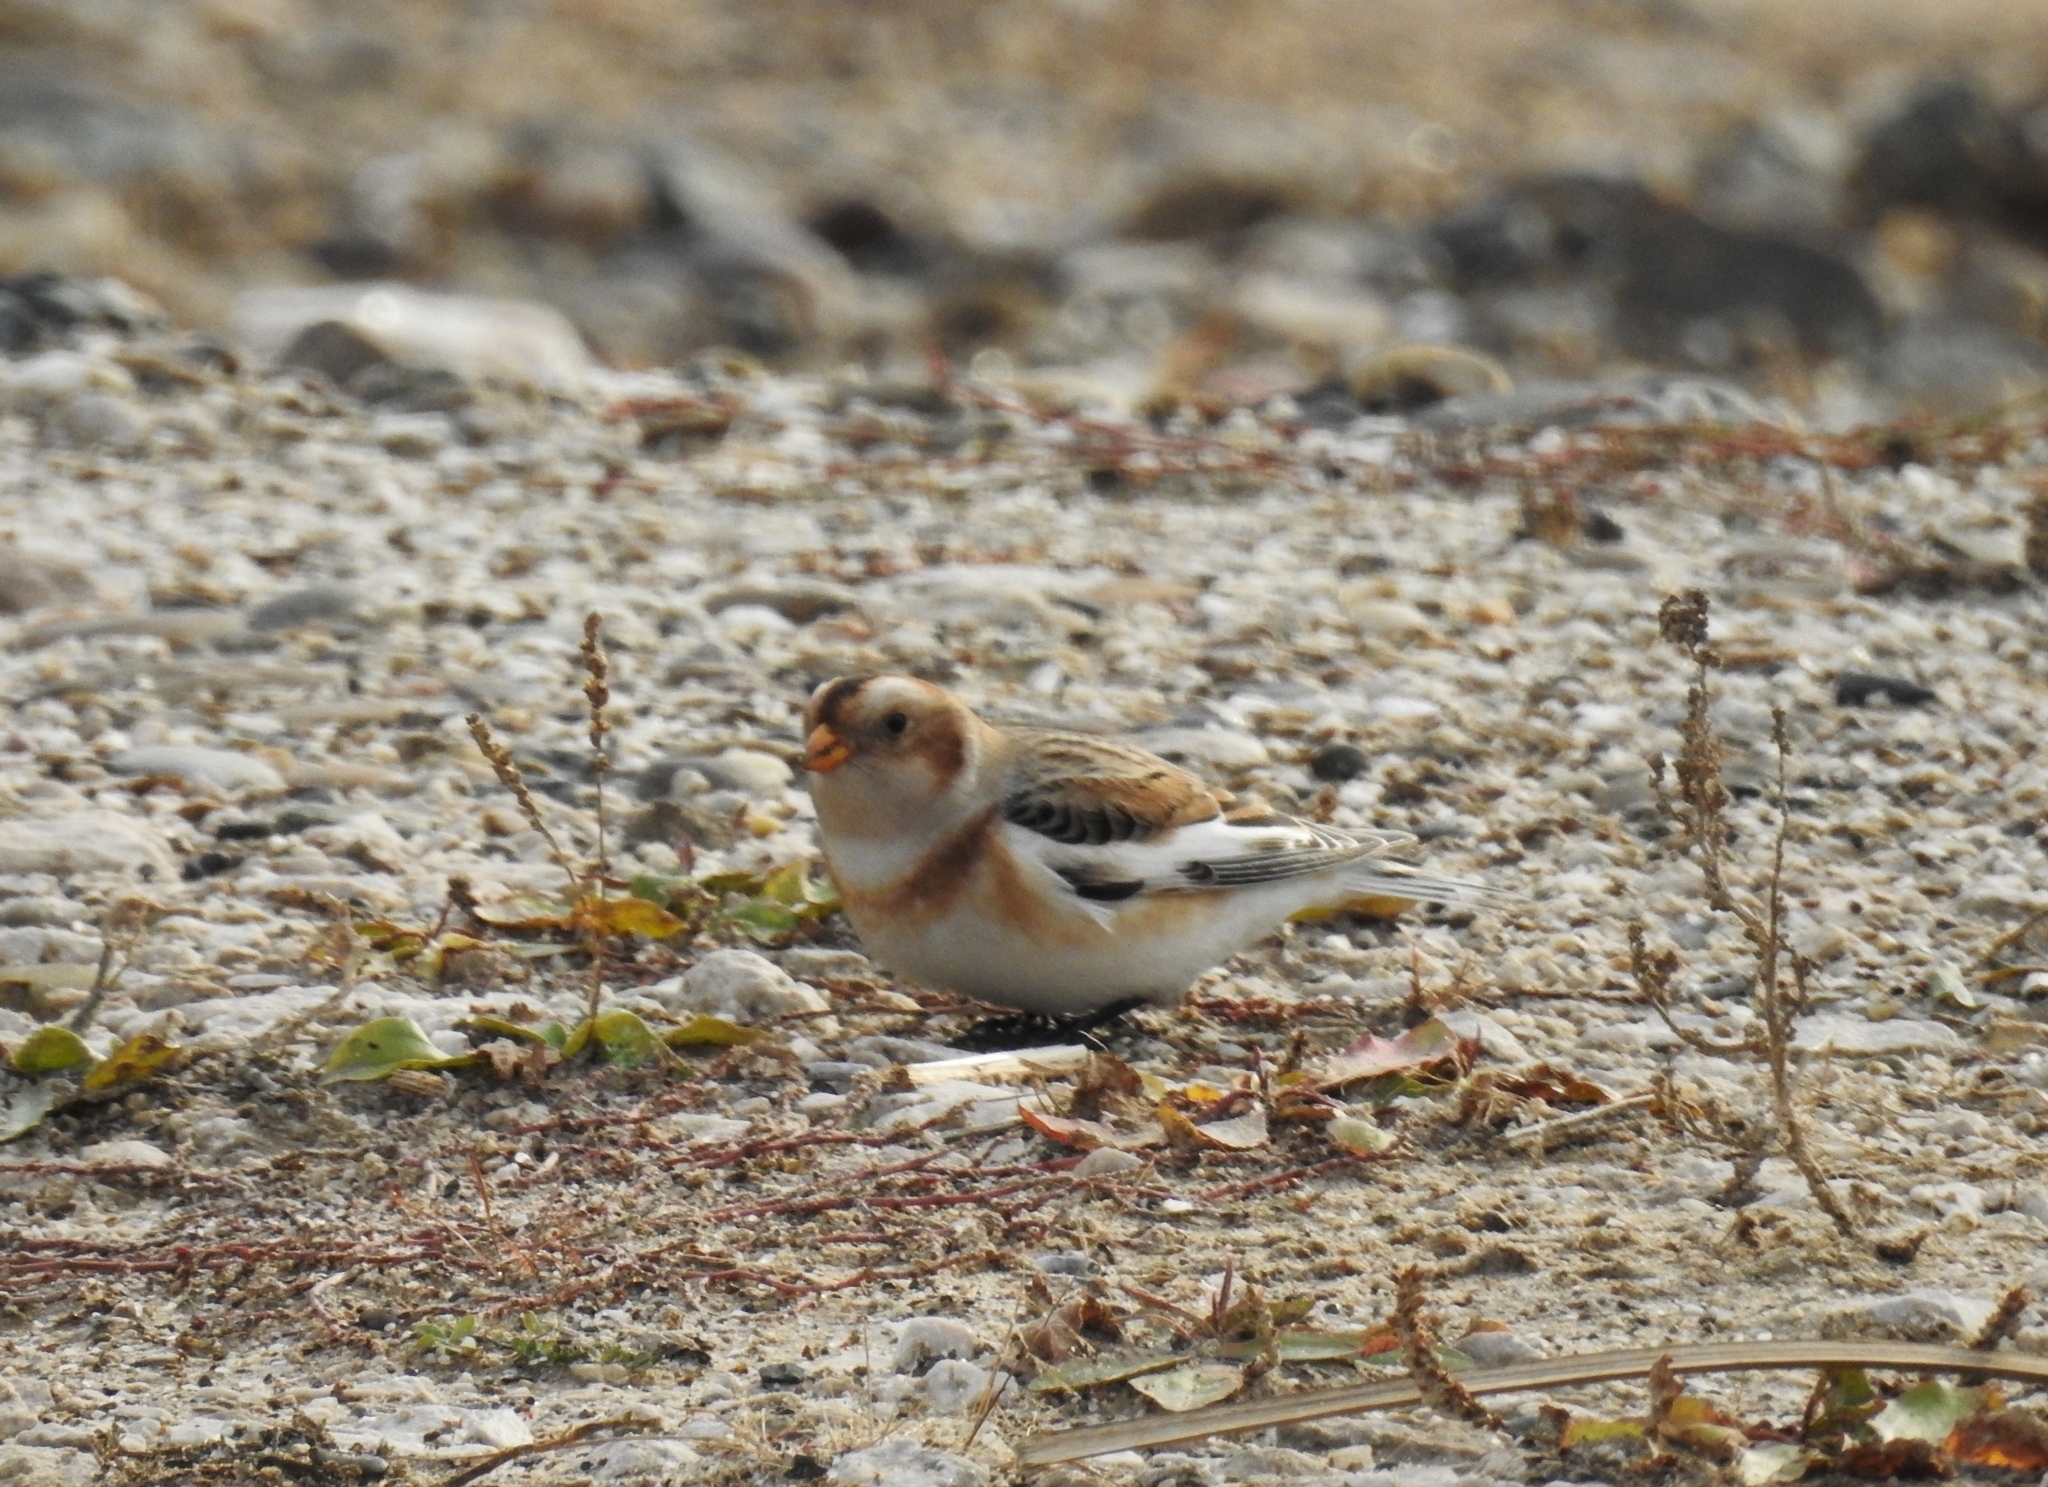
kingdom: Animalia
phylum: Chordata
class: Aves
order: Passeriformes
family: Calcariidae
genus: Plectrophenax
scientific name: Plectrophenax nivalis
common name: Snow bunting
